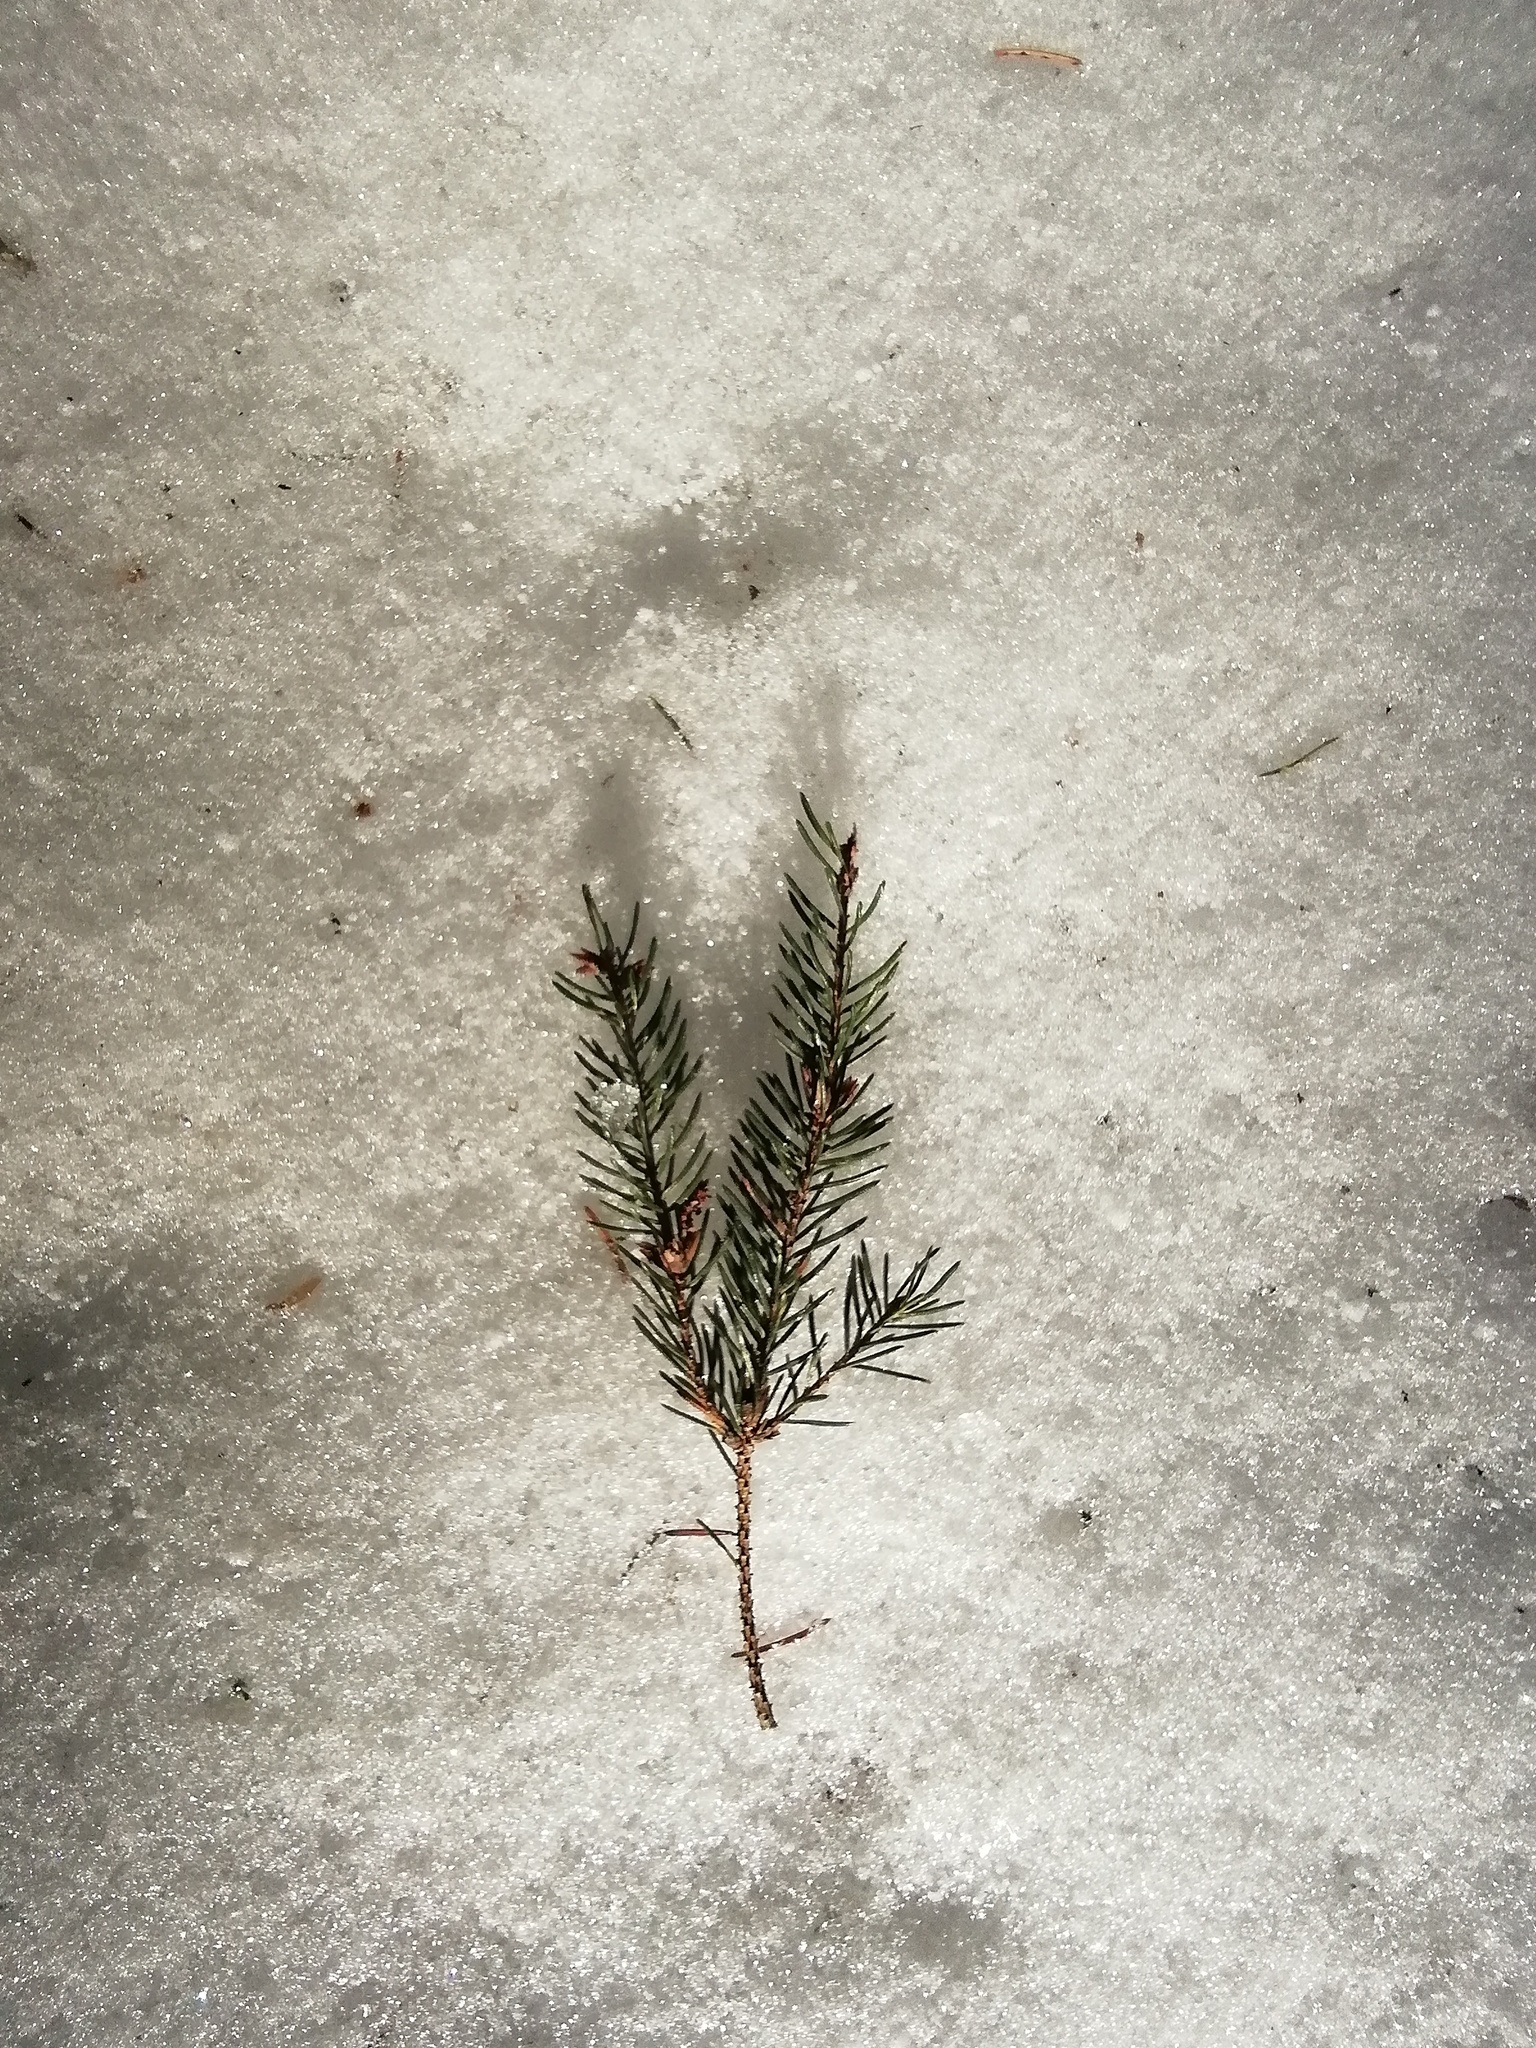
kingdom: Plantae
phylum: Tracheophyta
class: Pinopsida
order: Pinales
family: Pinaceae
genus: Picea
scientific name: Picea abies
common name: Norway spruce
